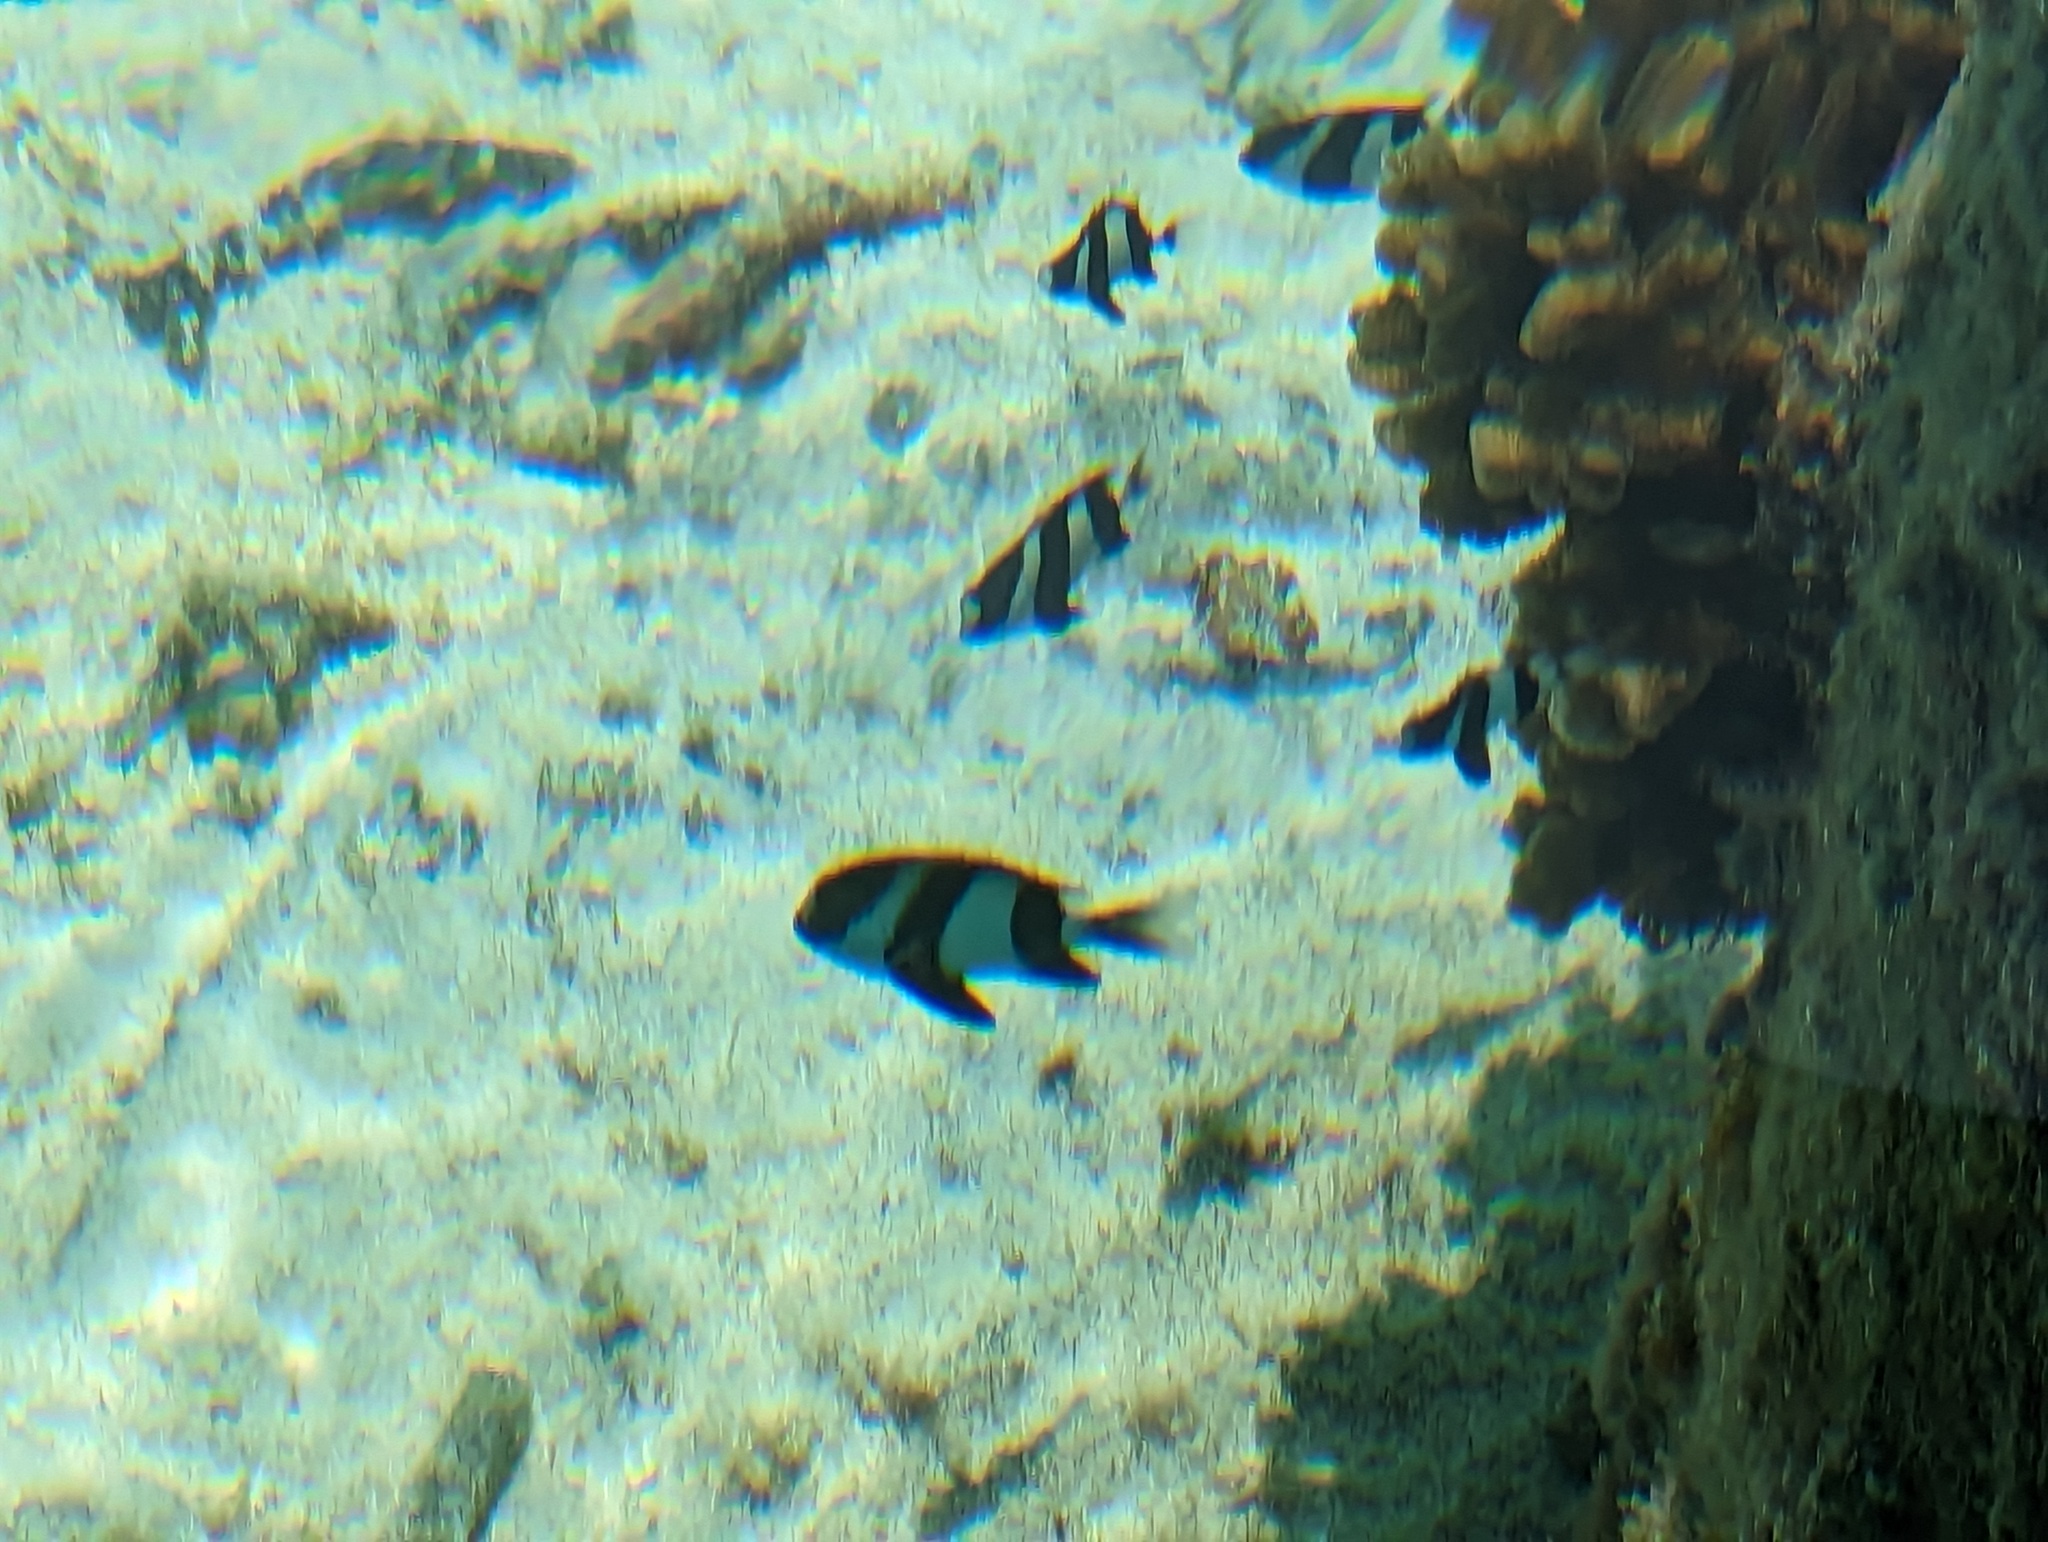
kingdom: Animalia
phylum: Chordata
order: Perciformes
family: Pomacentridae
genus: Dascyllus
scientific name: Dascyllus abudafur
